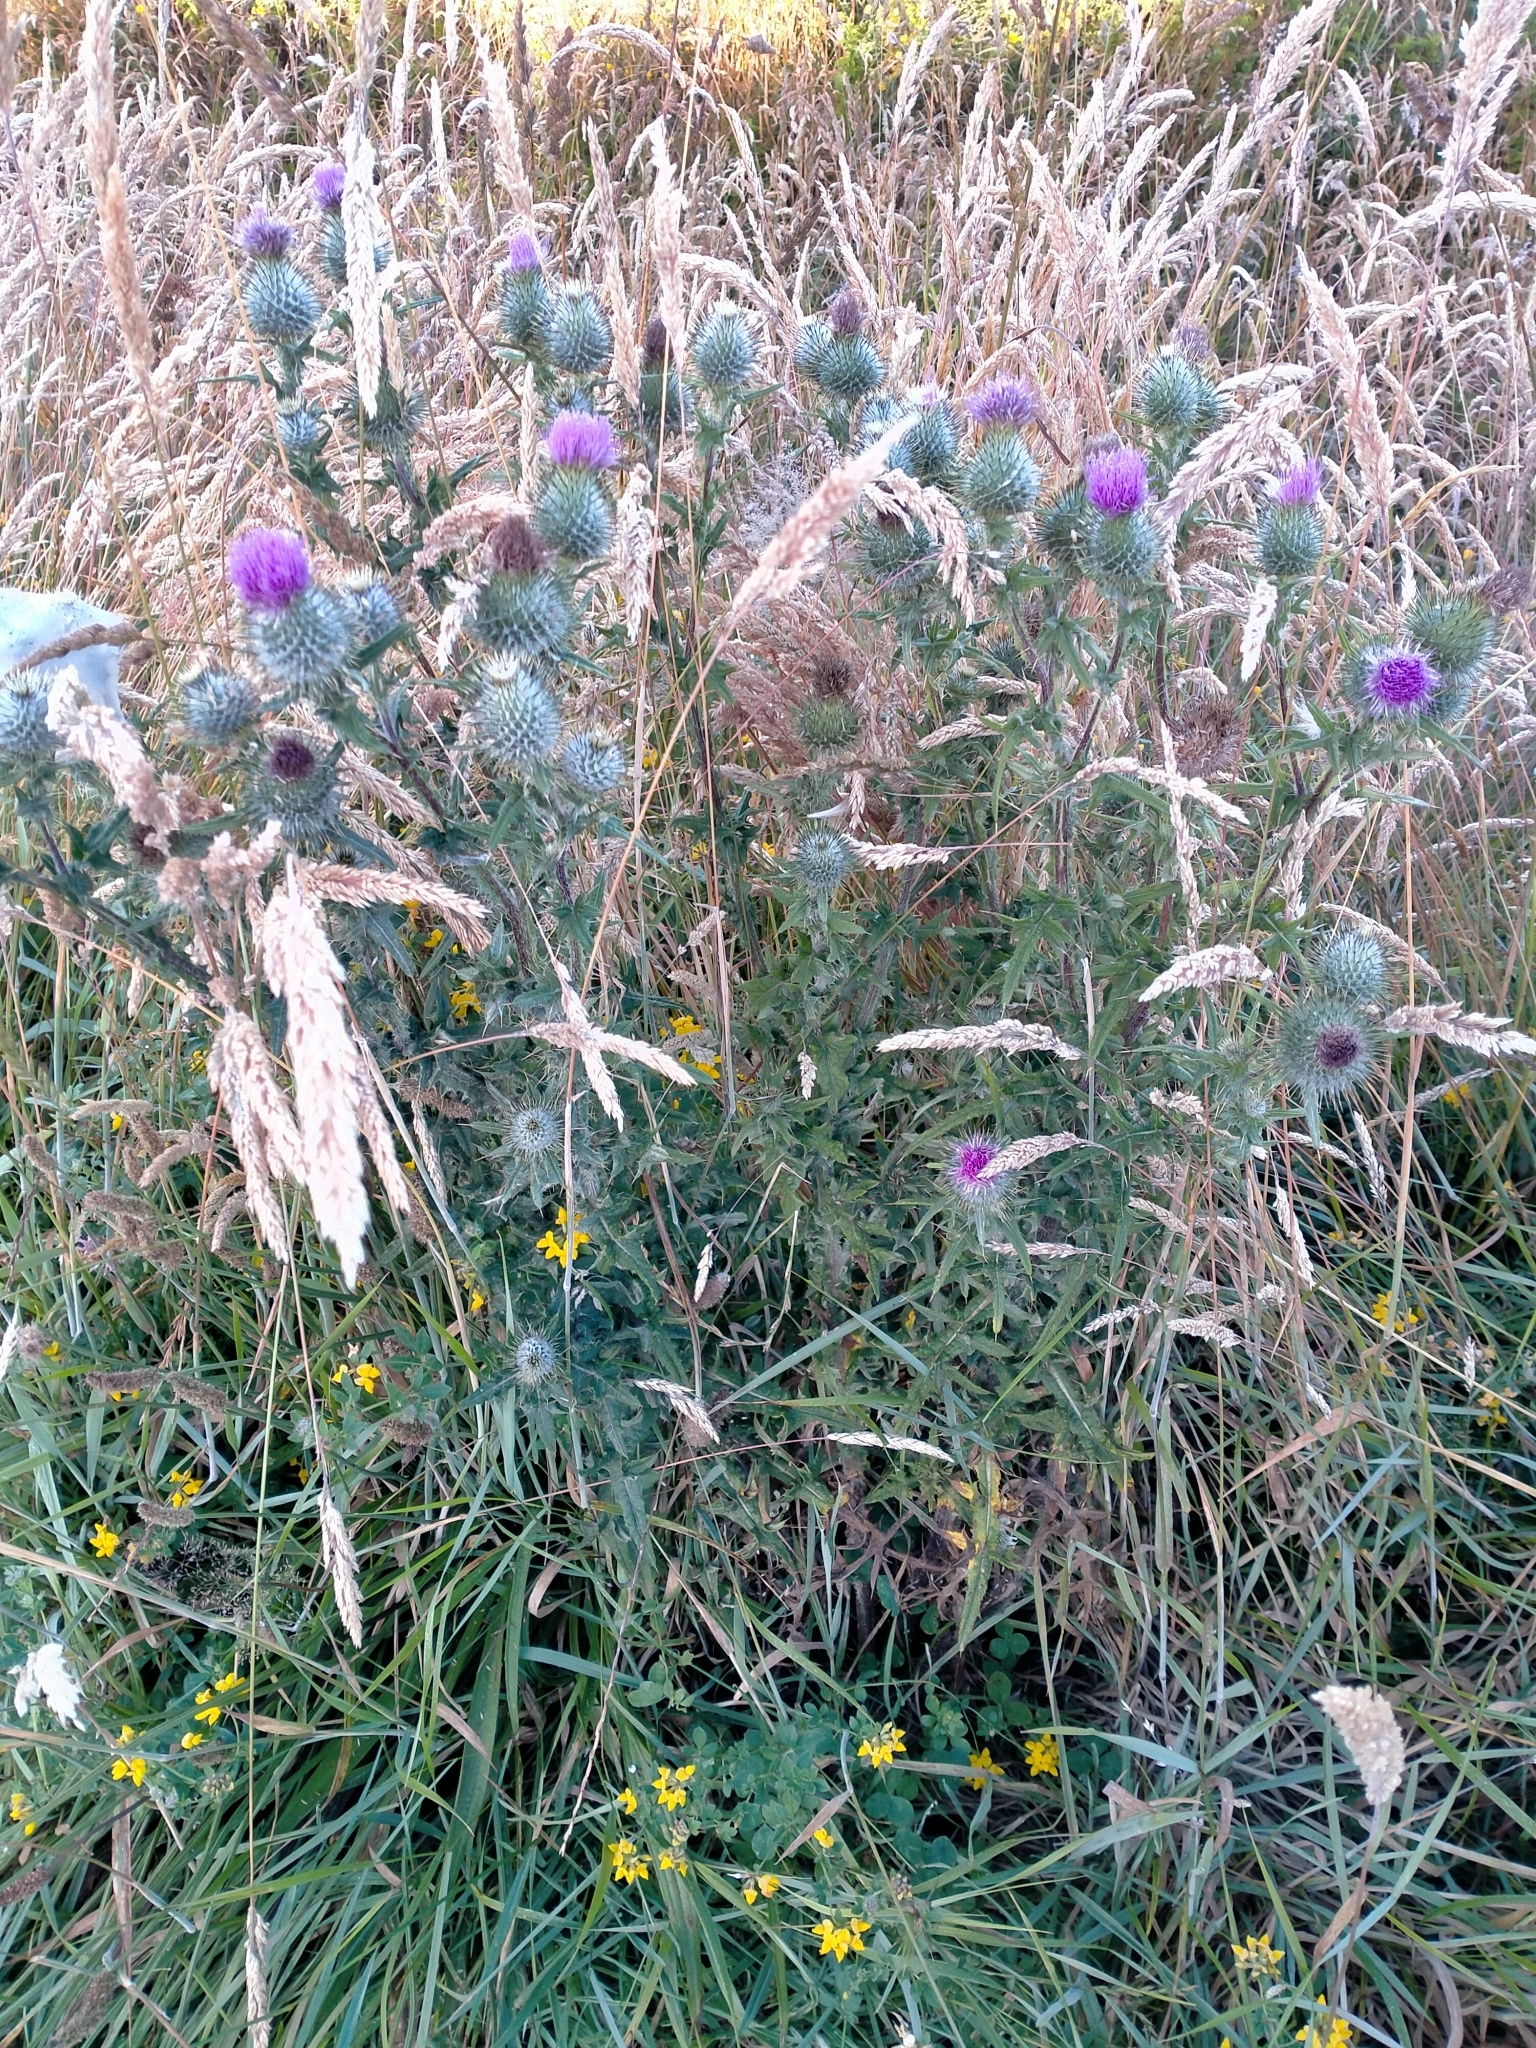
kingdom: Plantae
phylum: Tracheophyta
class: Magnoliopsida
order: Asterales
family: Asteraceae
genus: Cirsium
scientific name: Cirsium vulgare
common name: Bull thistle
